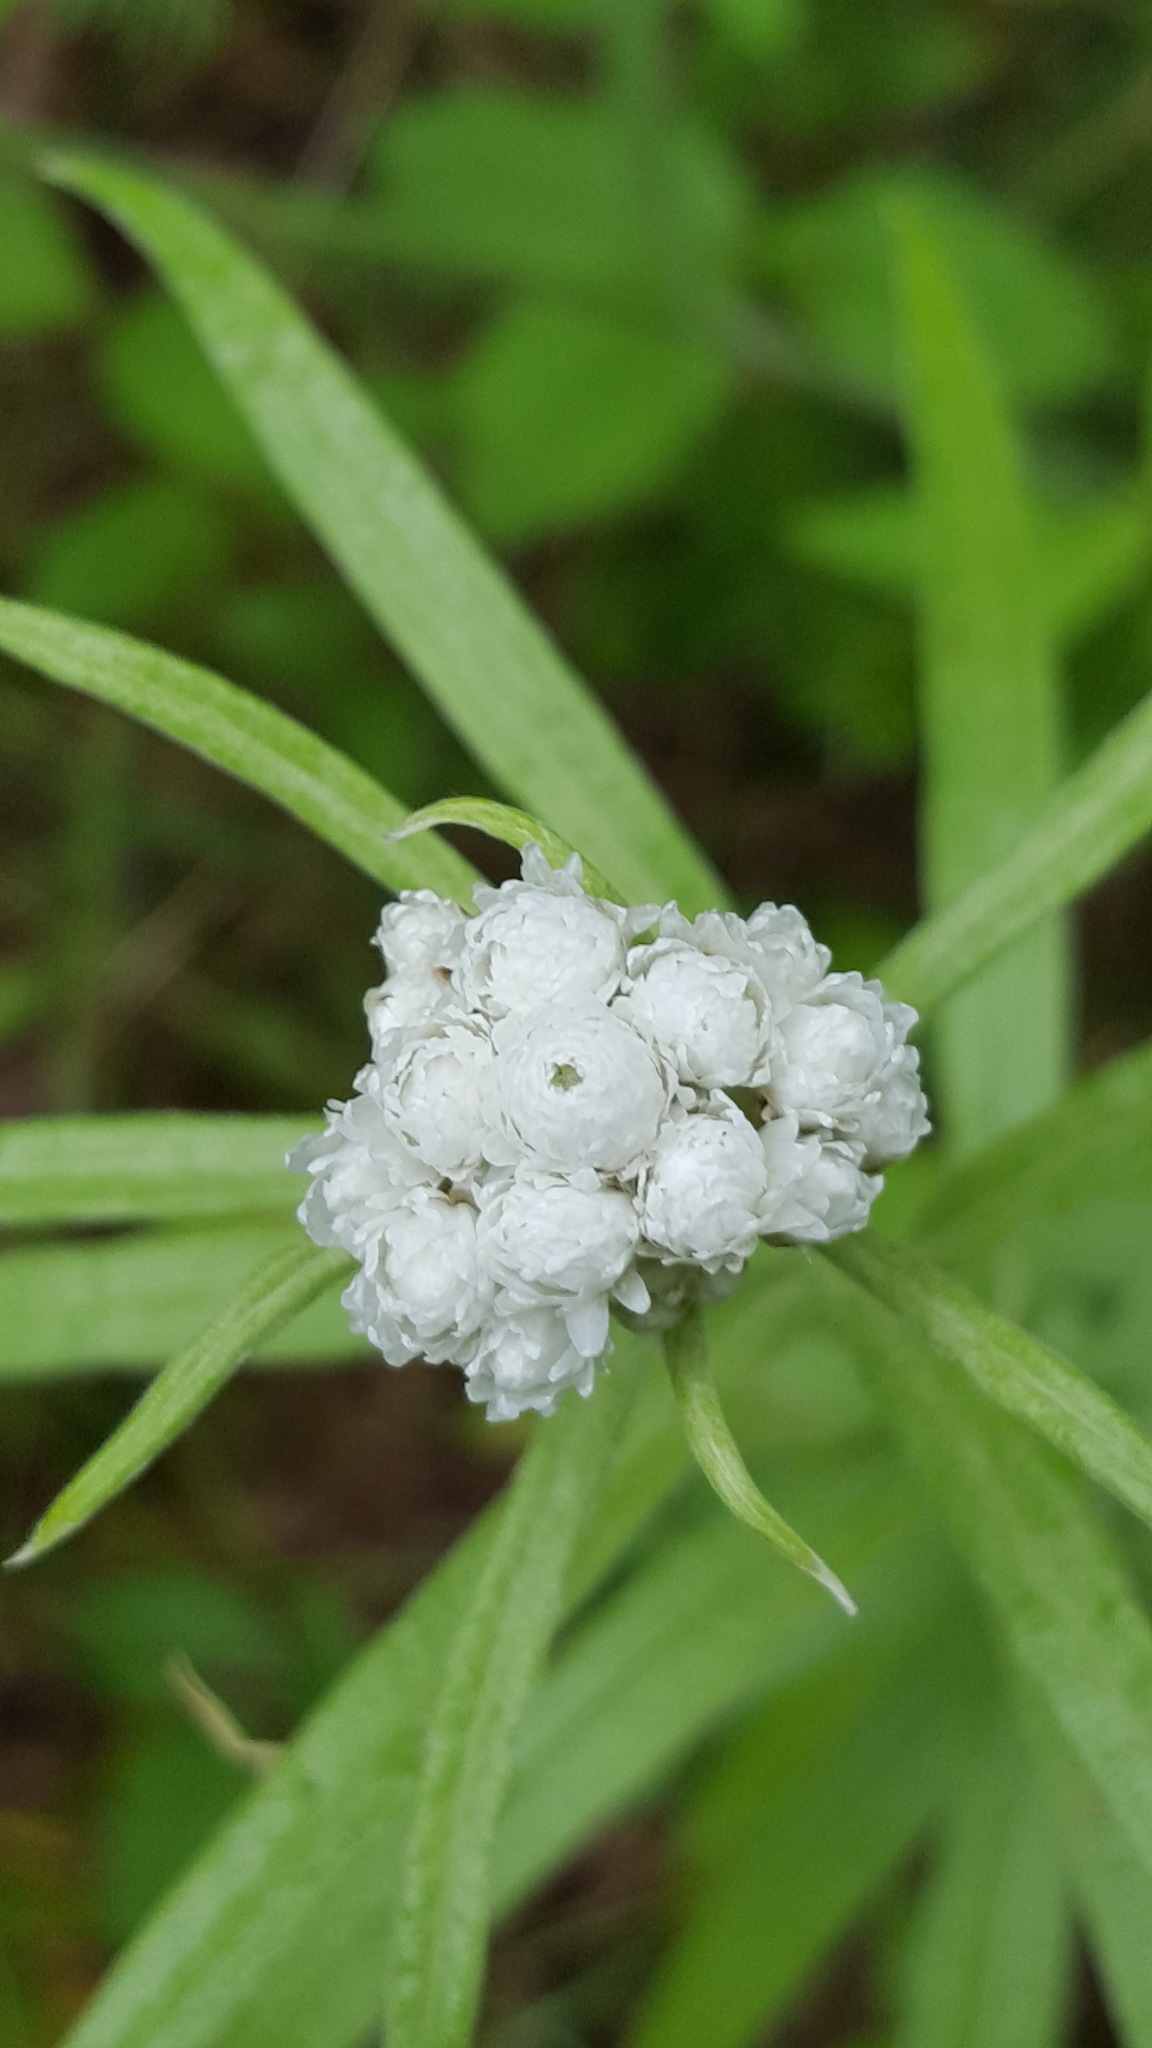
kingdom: Plantae
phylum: Tracheophyta
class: Magnoliopsida
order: Asterales
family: Asteraceae
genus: Anaphalis
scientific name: Anaphalis margaritacea
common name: Pearly everlasting
